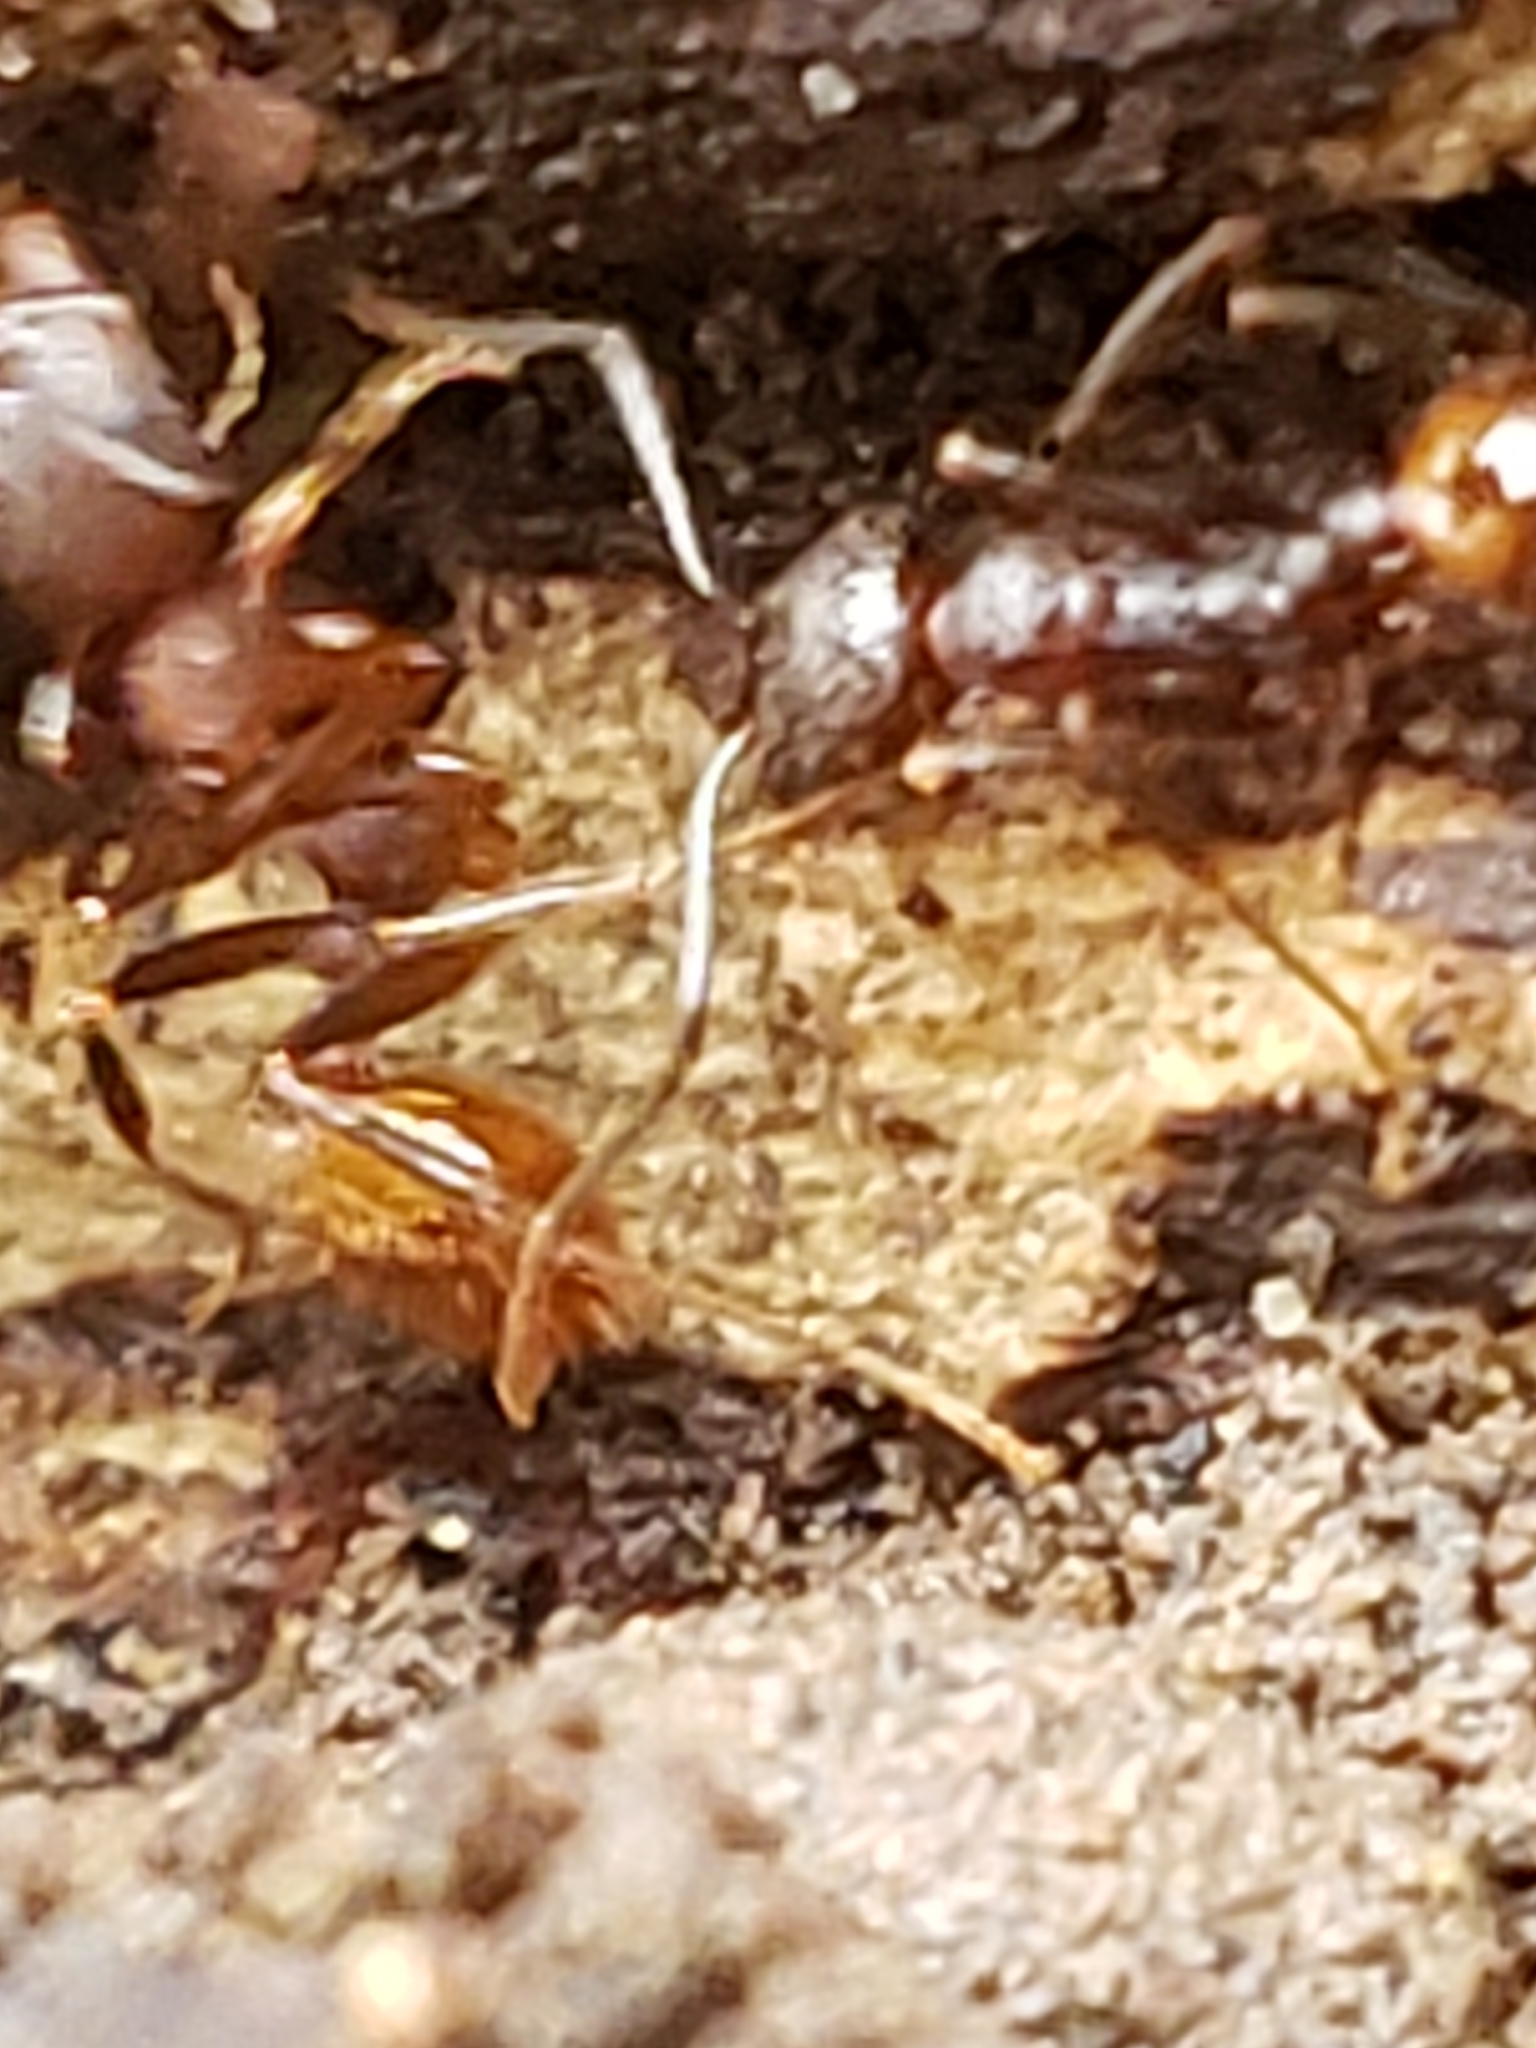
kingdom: Animalia
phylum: Arthropoda
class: Insecta
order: Hymenoptera
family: Formicidae
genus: Aphaenogaster
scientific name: Aphaenogaster fulva
